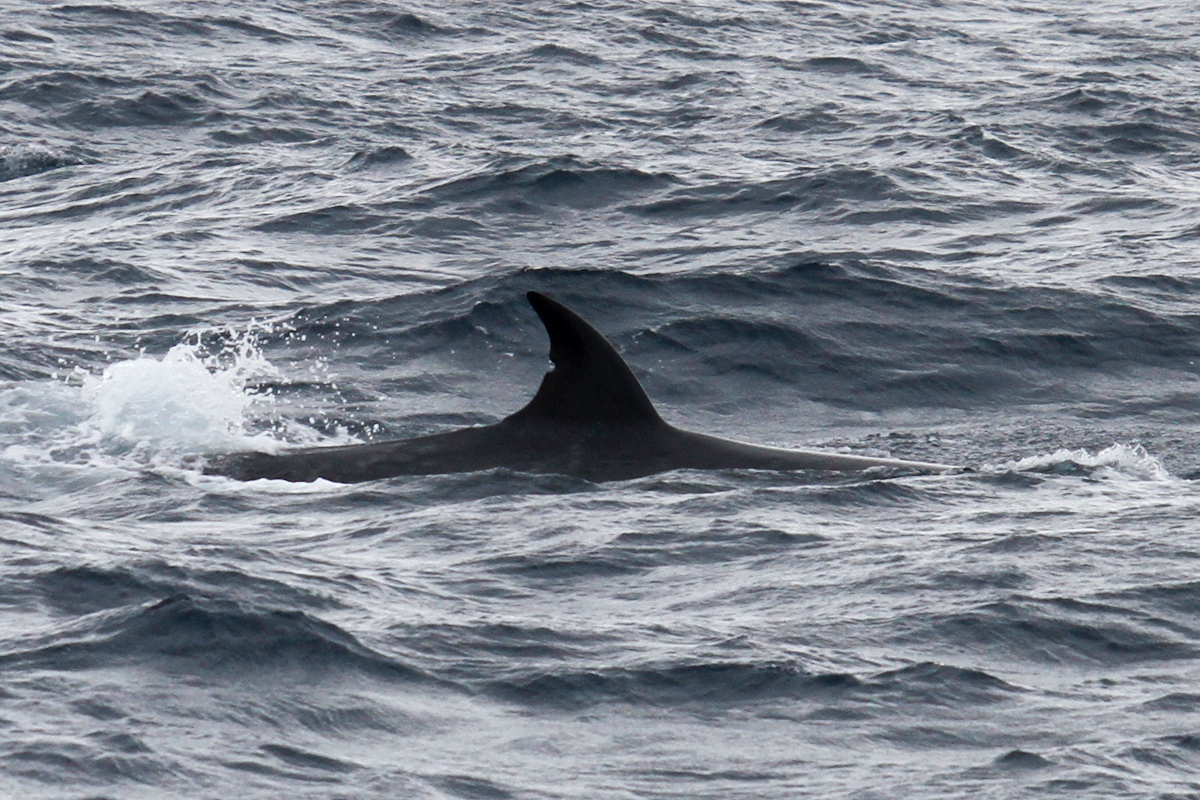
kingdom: Animalia
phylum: Chordata
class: Mammalia
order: Cetacea
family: Balaenopteridae
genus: Balaenoptera
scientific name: Balaenoptera physalus
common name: Fin whale
